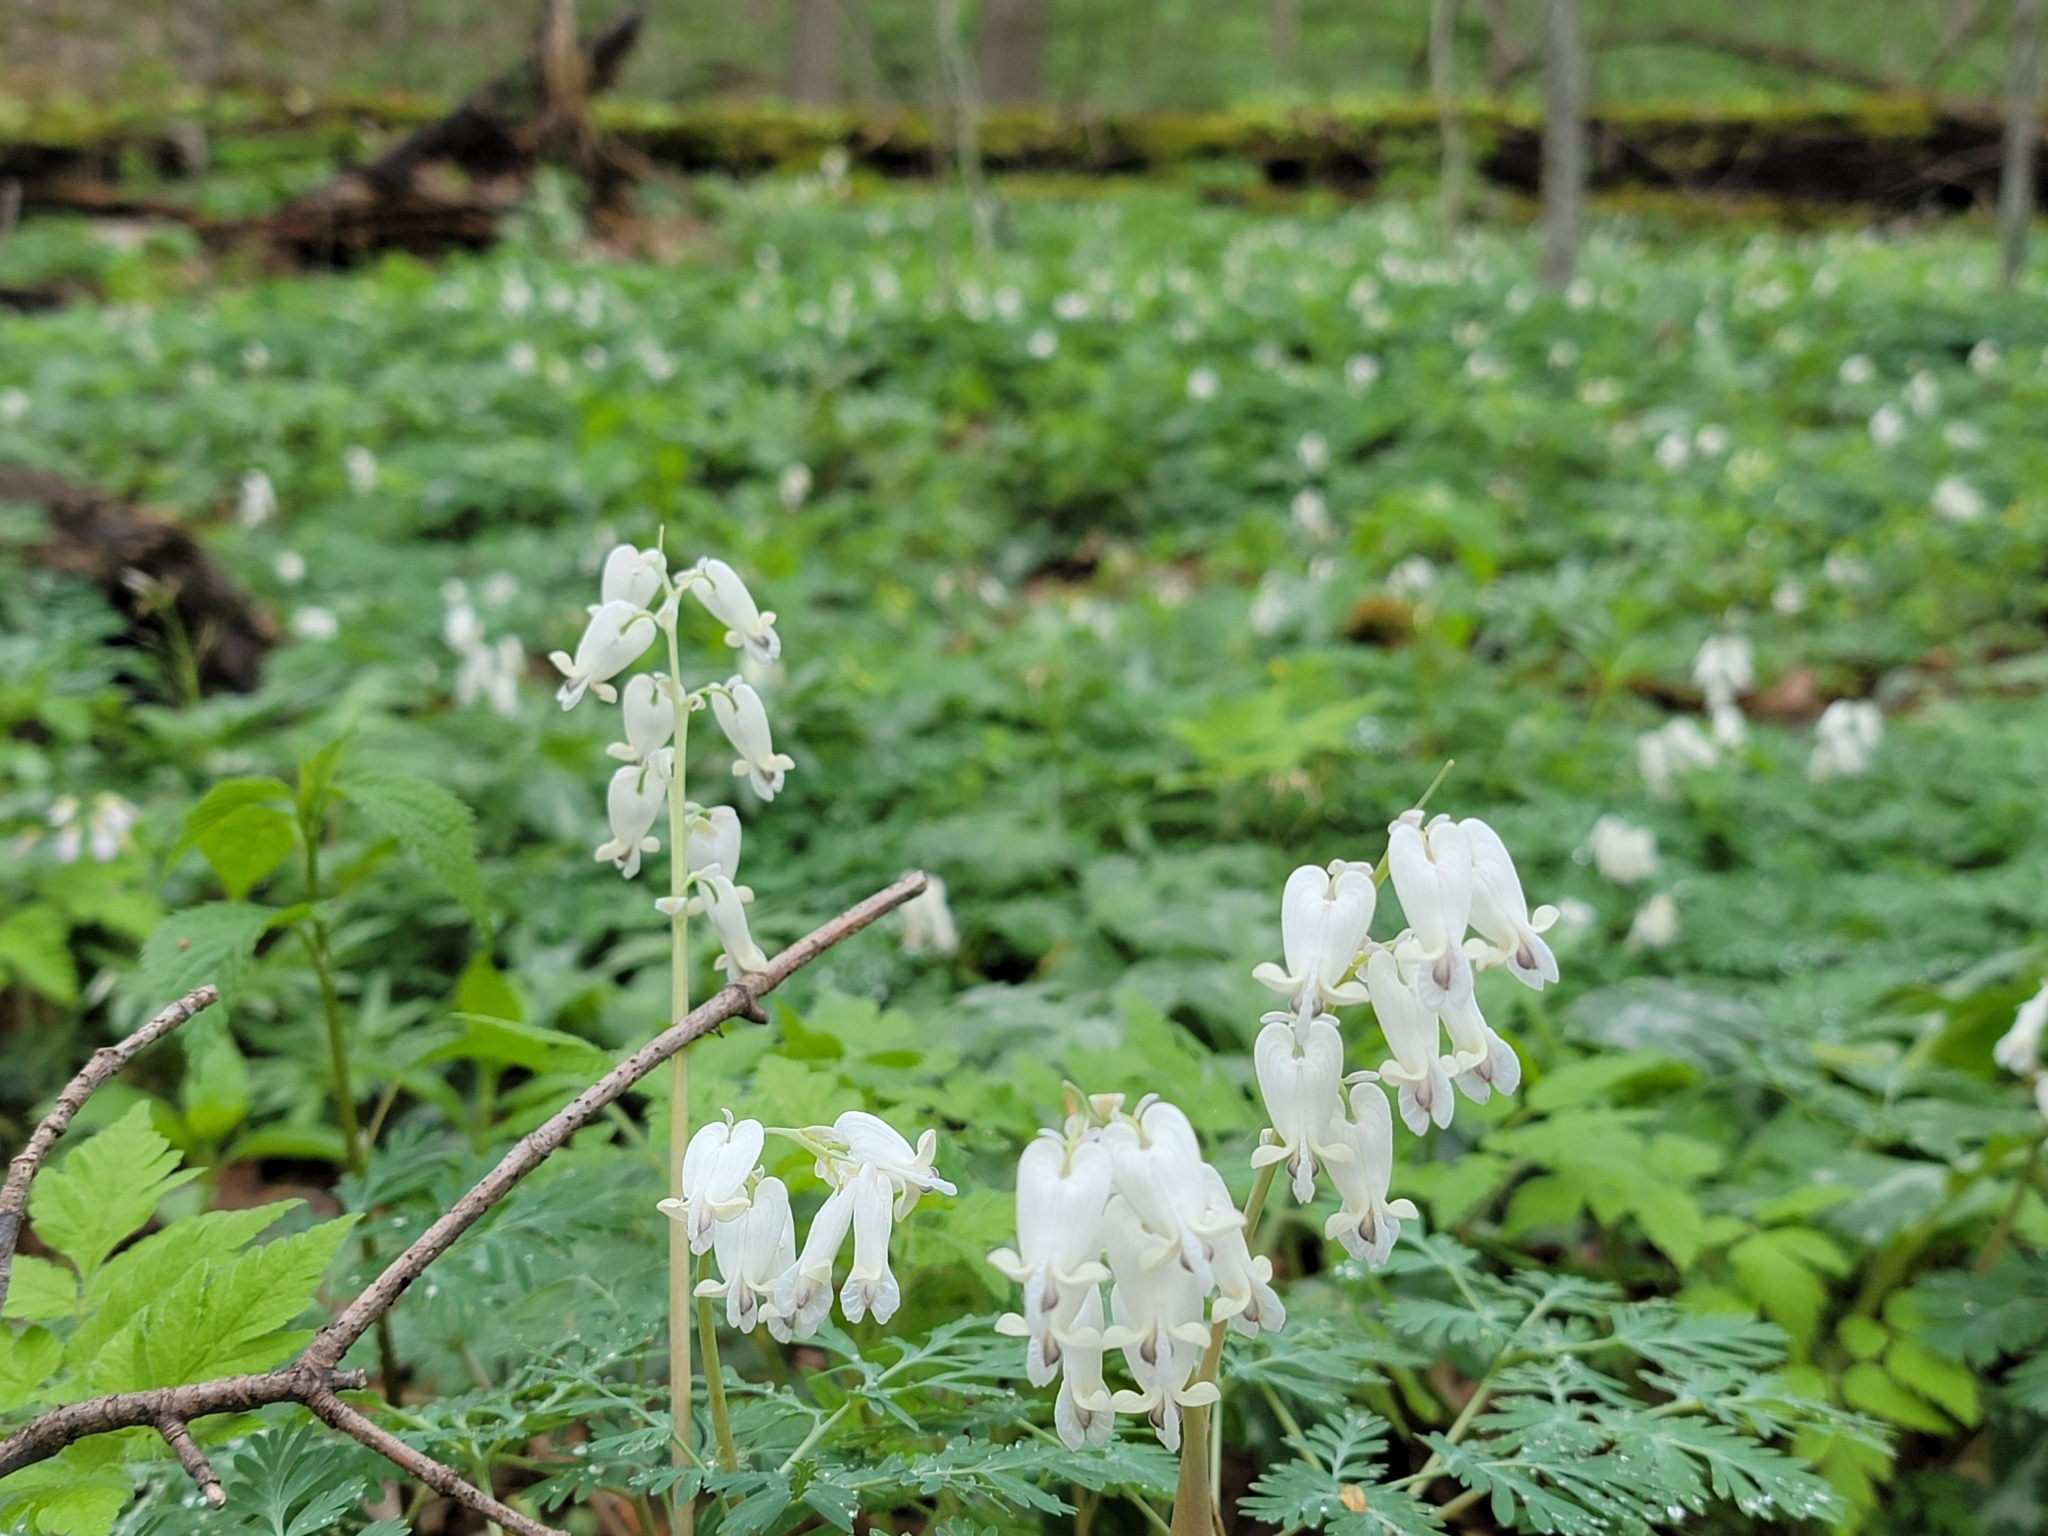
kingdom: Plantae
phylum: Tracheophyta
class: Magnoliopsida
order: Ranunculales
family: Papaveraceae
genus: Dicentra
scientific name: Dicentra canadensis
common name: Squirrel-corn
